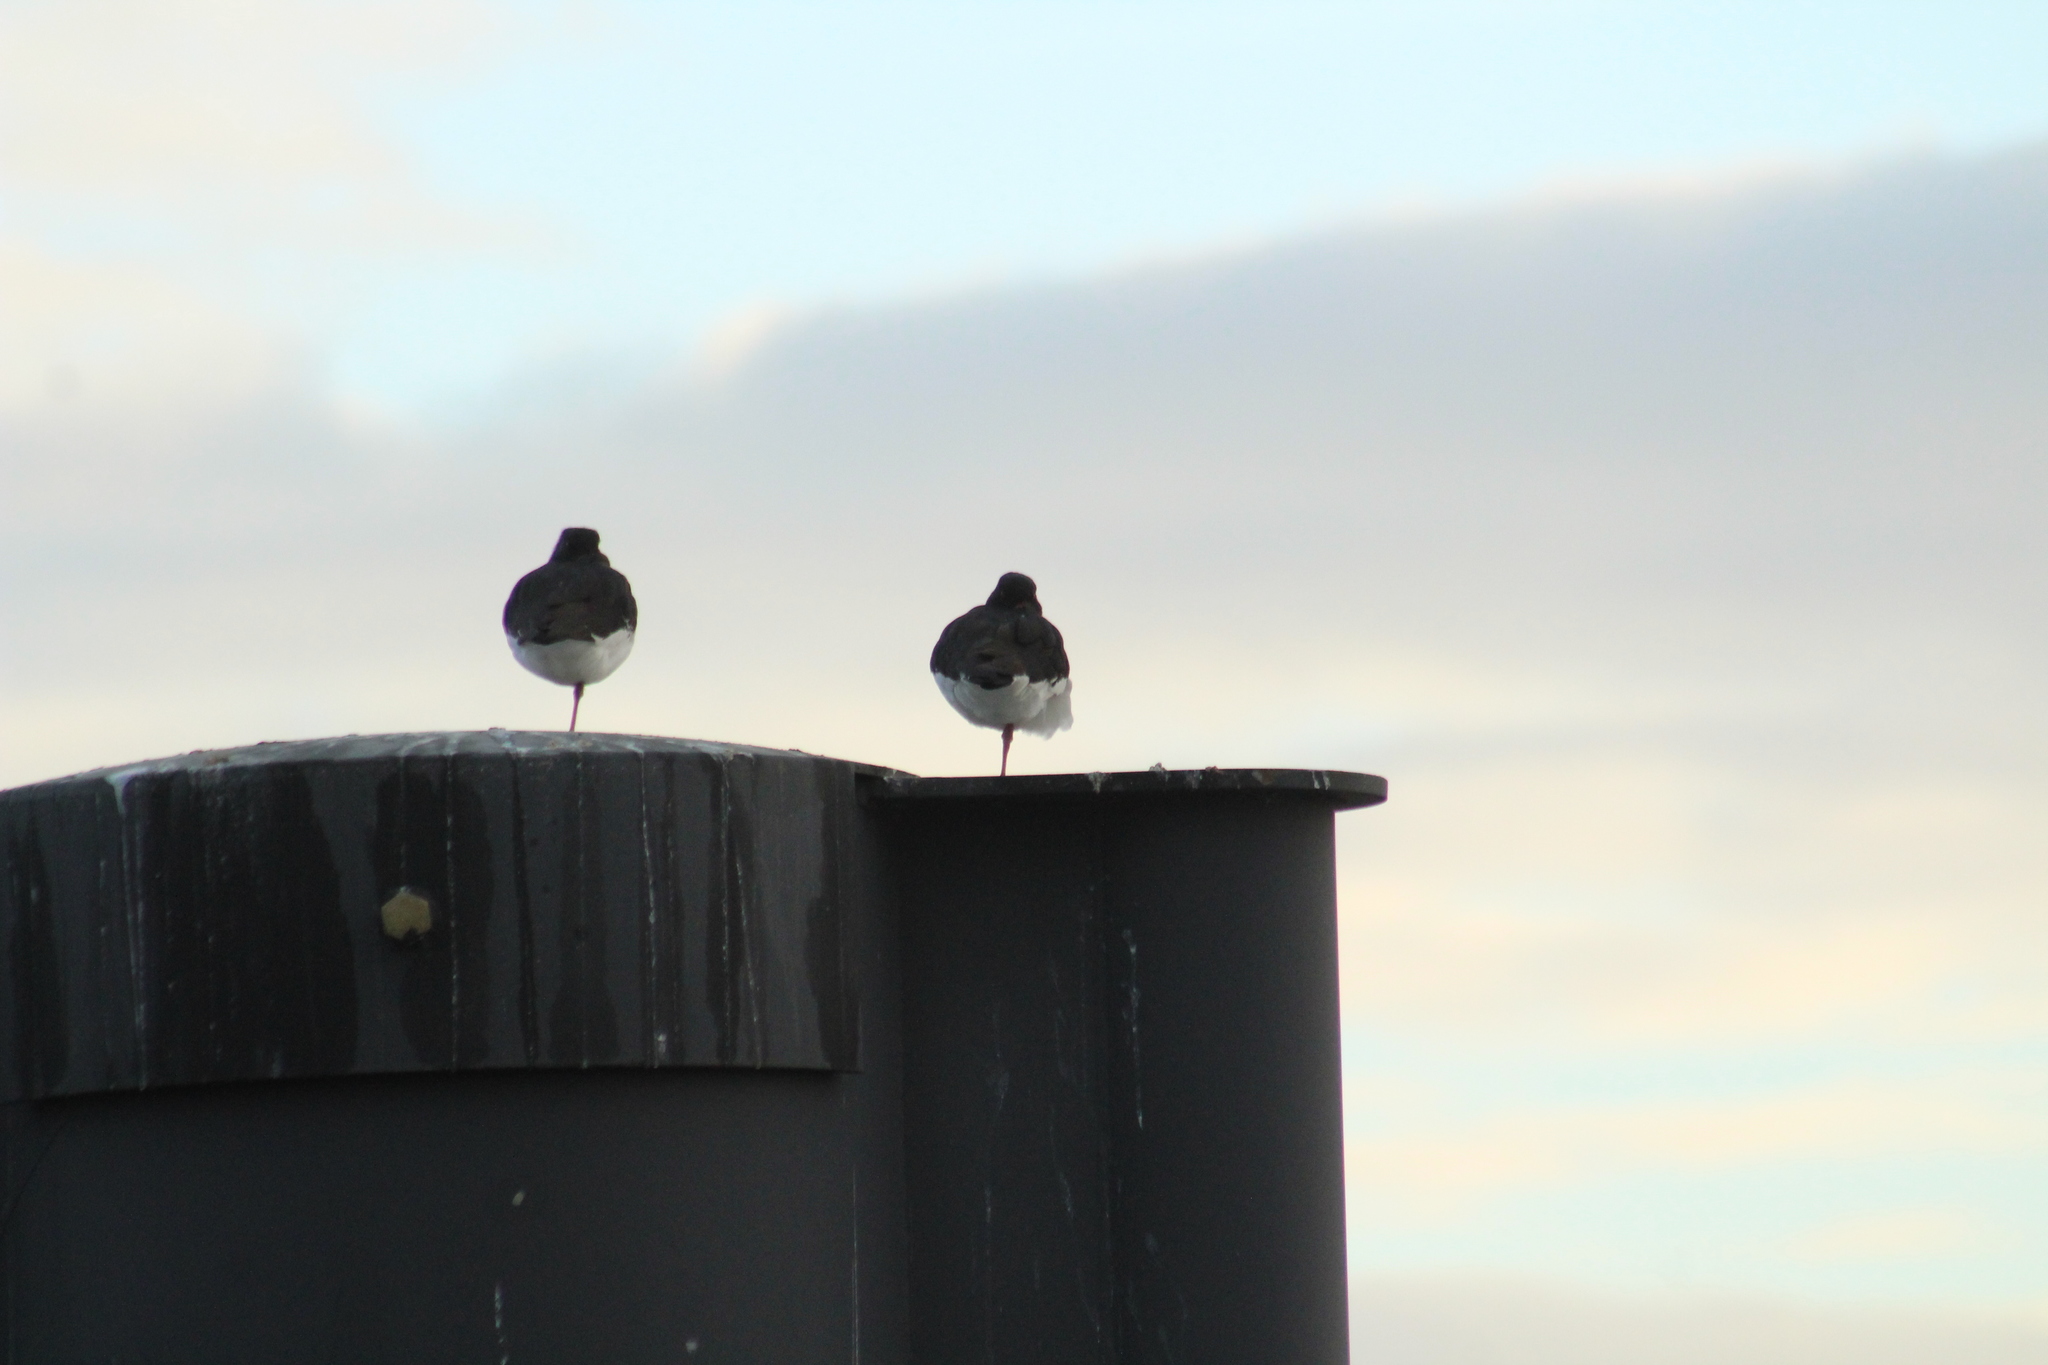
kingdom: Animalia
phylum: Chordata
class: Aves
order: Charadriiformes
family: Haematopodidae
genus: Haematopus
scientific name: Haematopus ostralegus
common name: Eurasian oystercatcher
